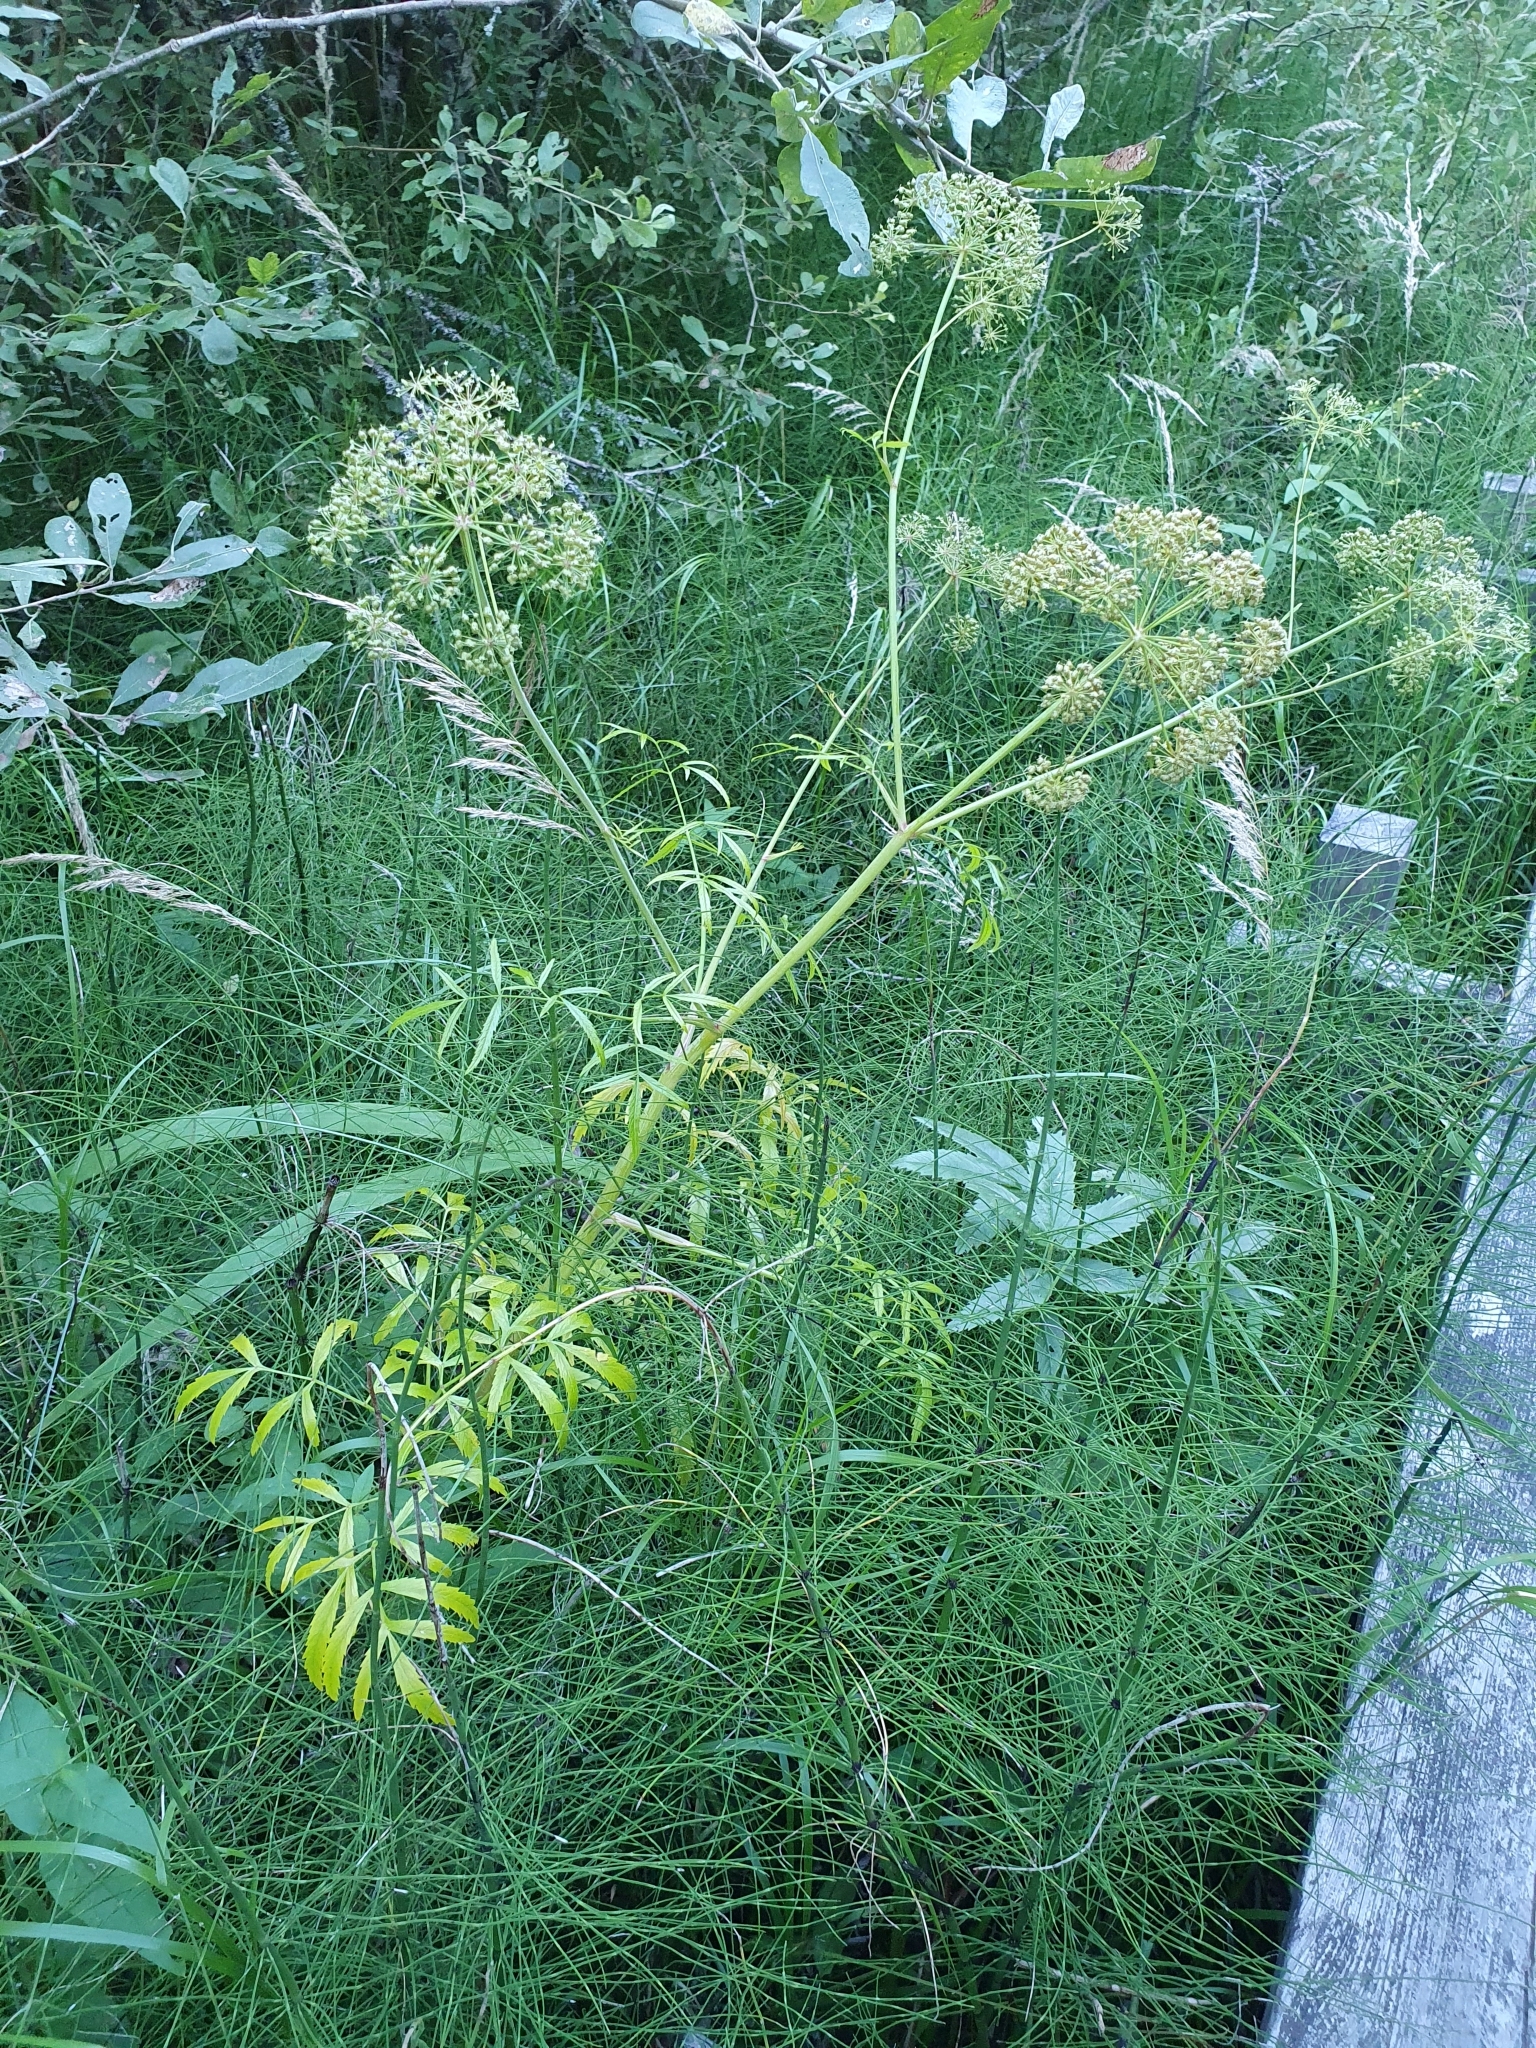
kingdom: Plantae
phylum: Tracheophyta
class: Magnoliopsida
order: Apiales
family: Apiaceae
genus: Cicuta
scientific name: Cicuta virosa
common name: Cowbane
